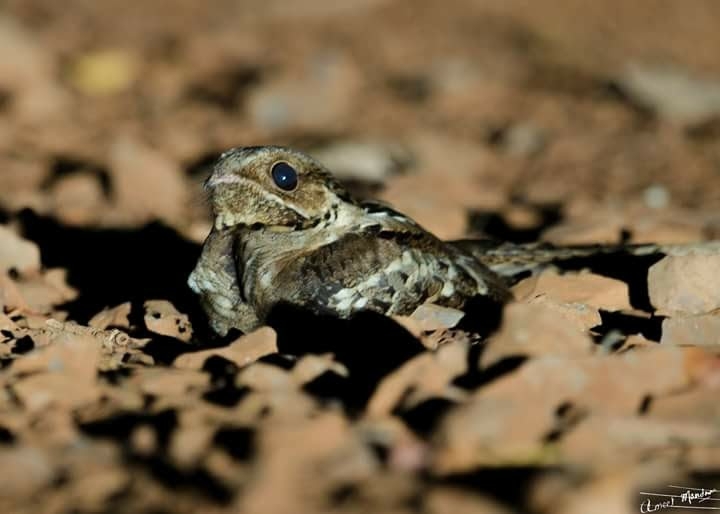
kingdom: Animalia
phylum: Chordata
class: Aves
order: Caprimulgiformes
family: Caprimulgidae
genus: Caprimulgus
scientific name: Caprimulgus macrurus
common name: Large-tailed nightjar
